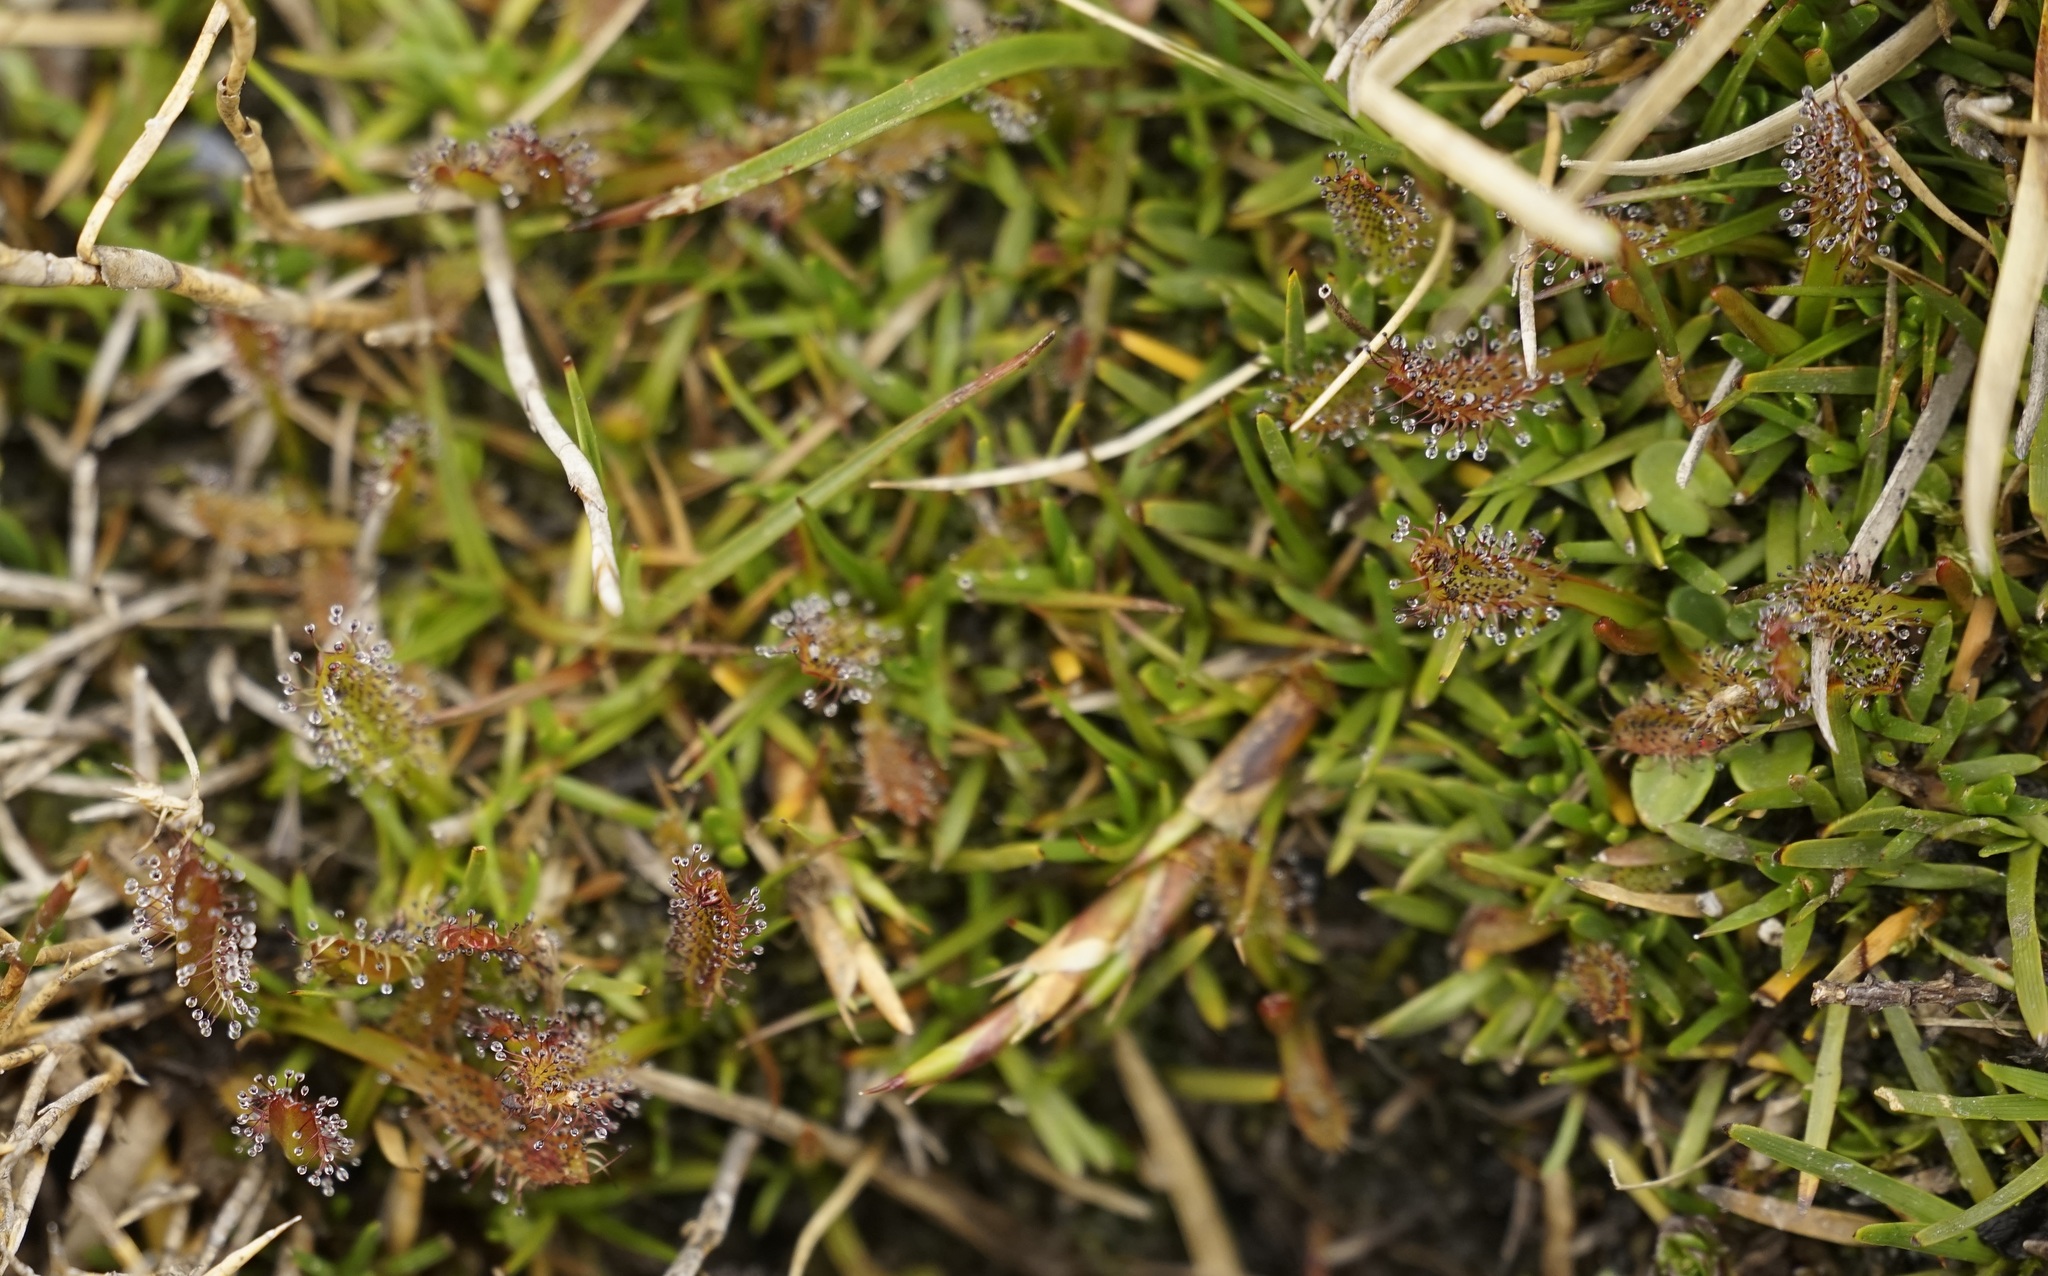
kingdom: Plantae
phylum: Tracheophyta
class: Magnoliopsida
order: Caryophyllales
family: Droseraceae
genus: Drosera
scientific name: Drosera arcturi
